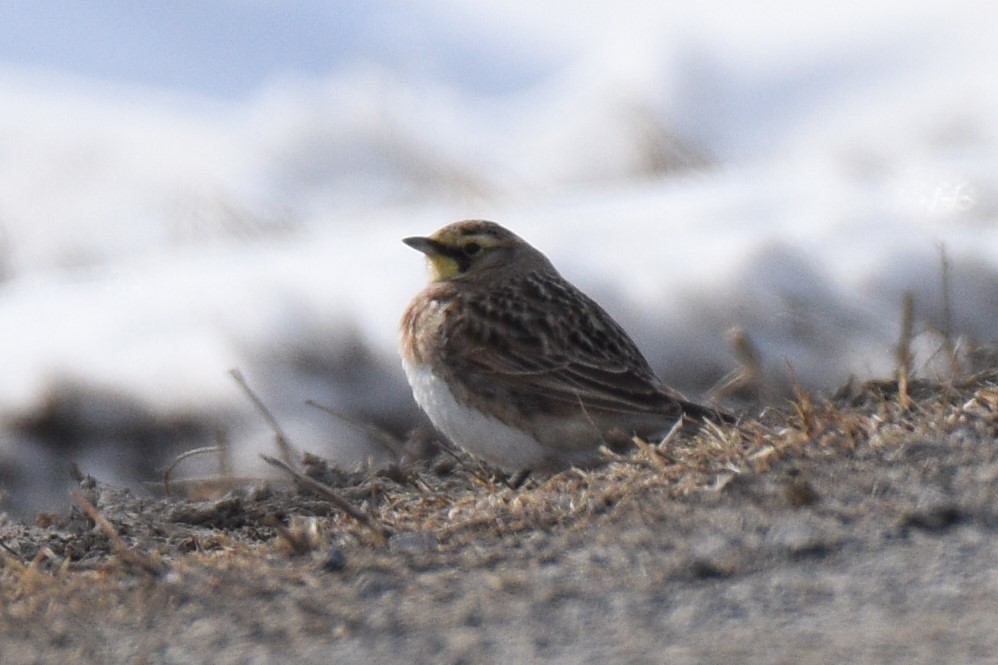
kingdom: Animalia
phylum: Chordata
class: Aves
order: Passeriformes
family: Alaudidae
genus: Eremophila
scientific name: Eremophila alpestris
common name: Horned lark
